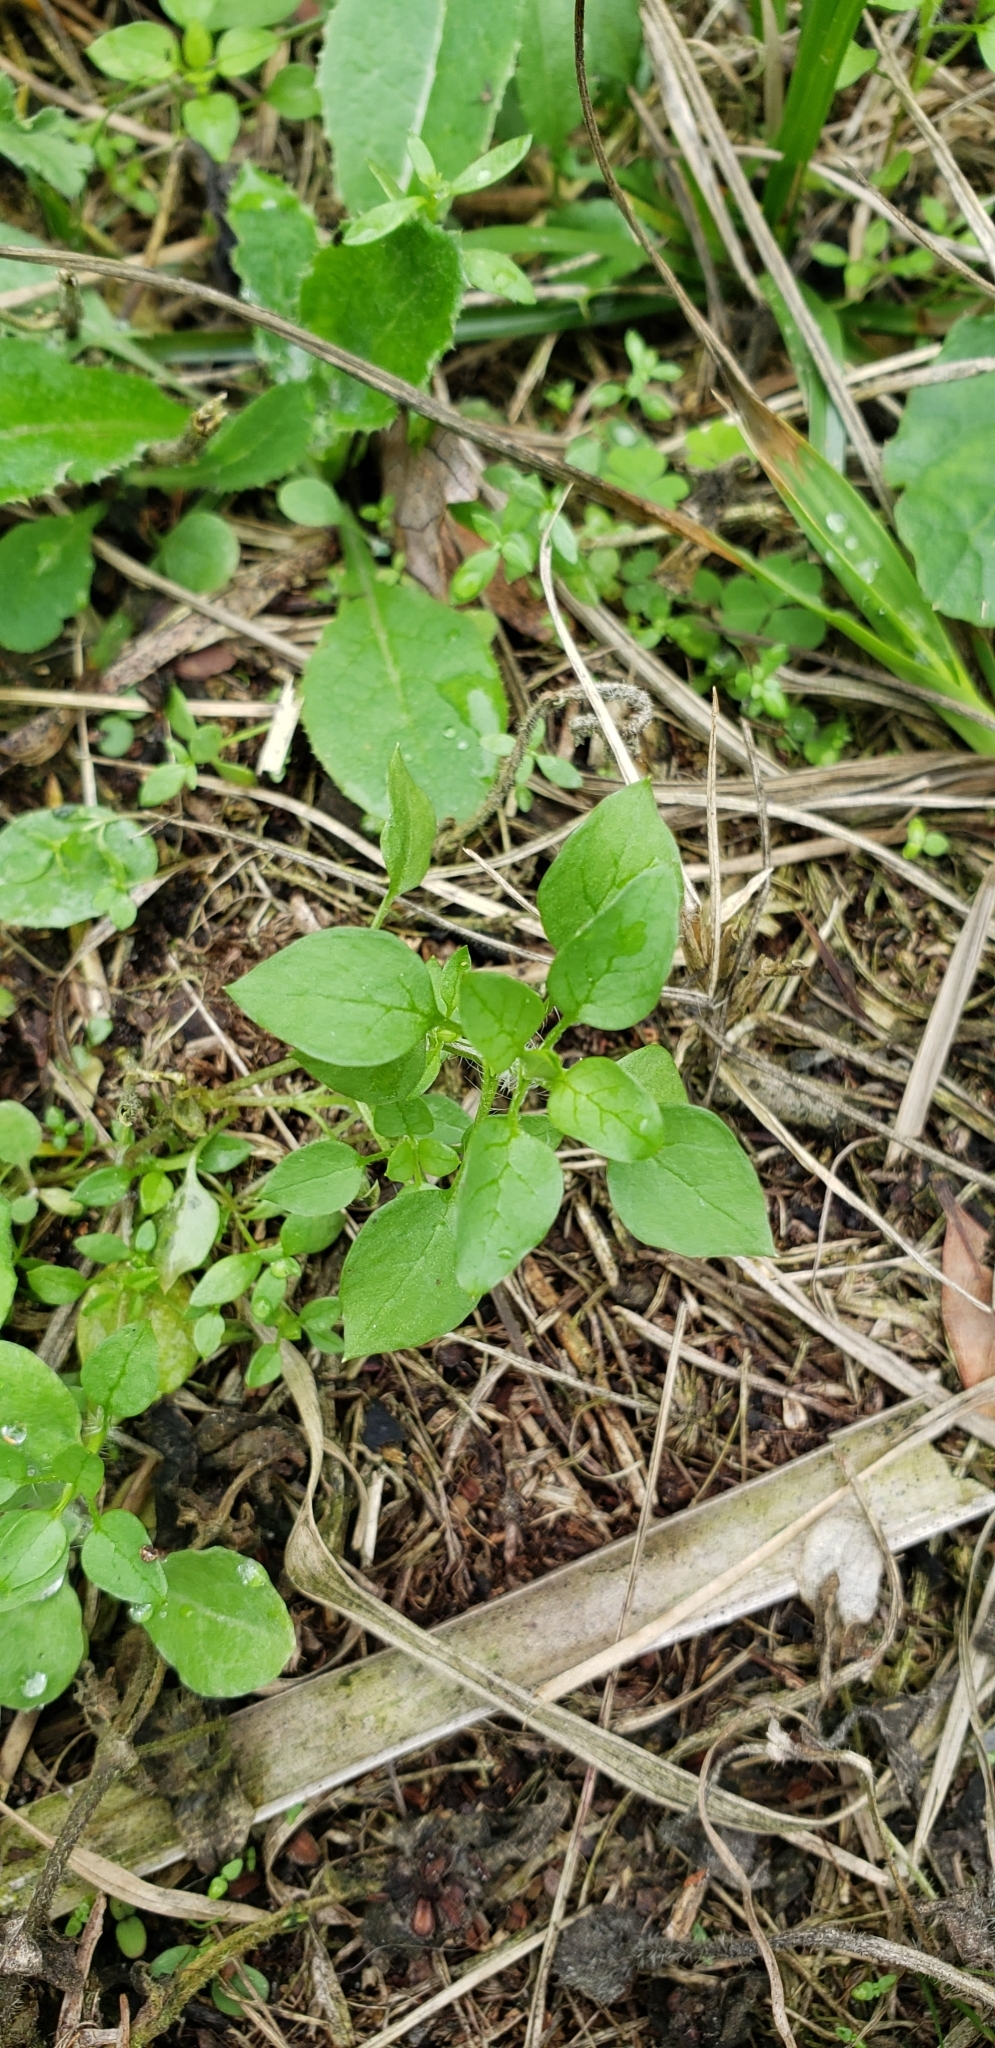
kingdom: Plantae
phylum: Tracheophyta
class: Magnoliopsida
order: Caryophyllales
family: Caryophyllaceae
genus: Stellaria
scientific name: Stellaria media
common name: Common chickweed
